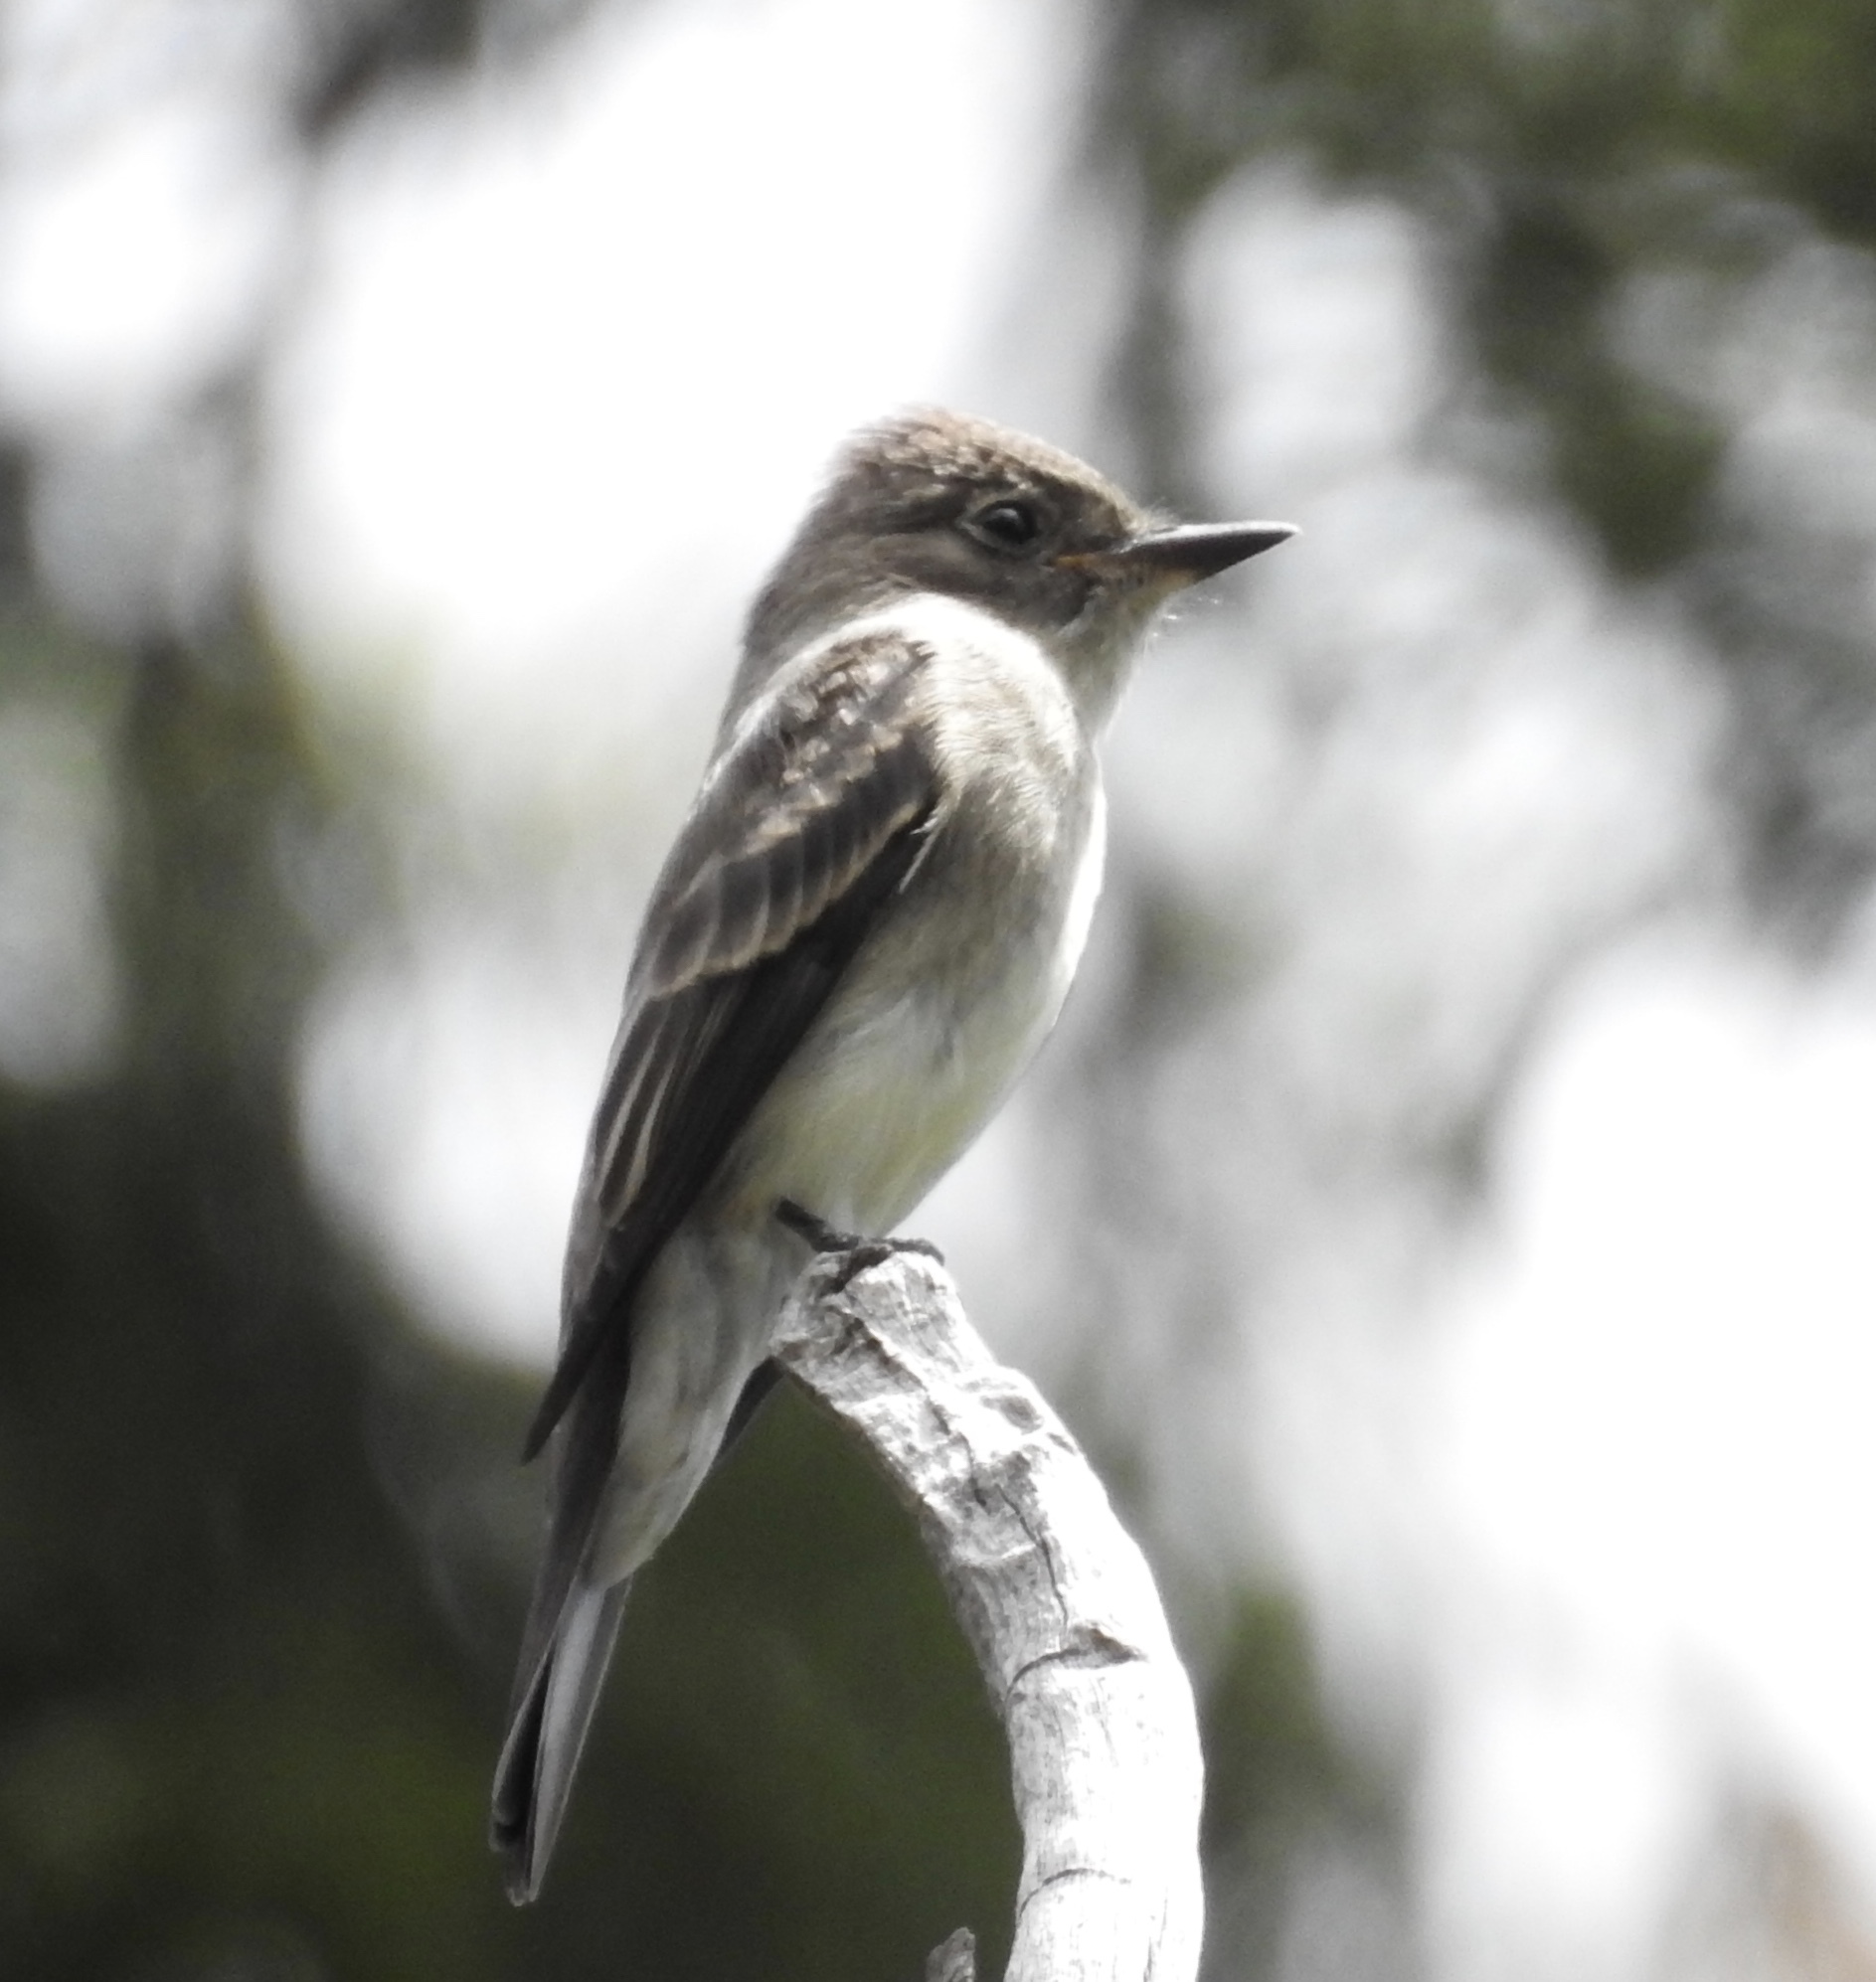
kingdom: Animalia
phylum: Chordata
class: Aves
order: Passeriformes
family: Tyrannidae
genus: Contopus
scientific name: Contopus sordidulus
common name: Western wood-pewee
